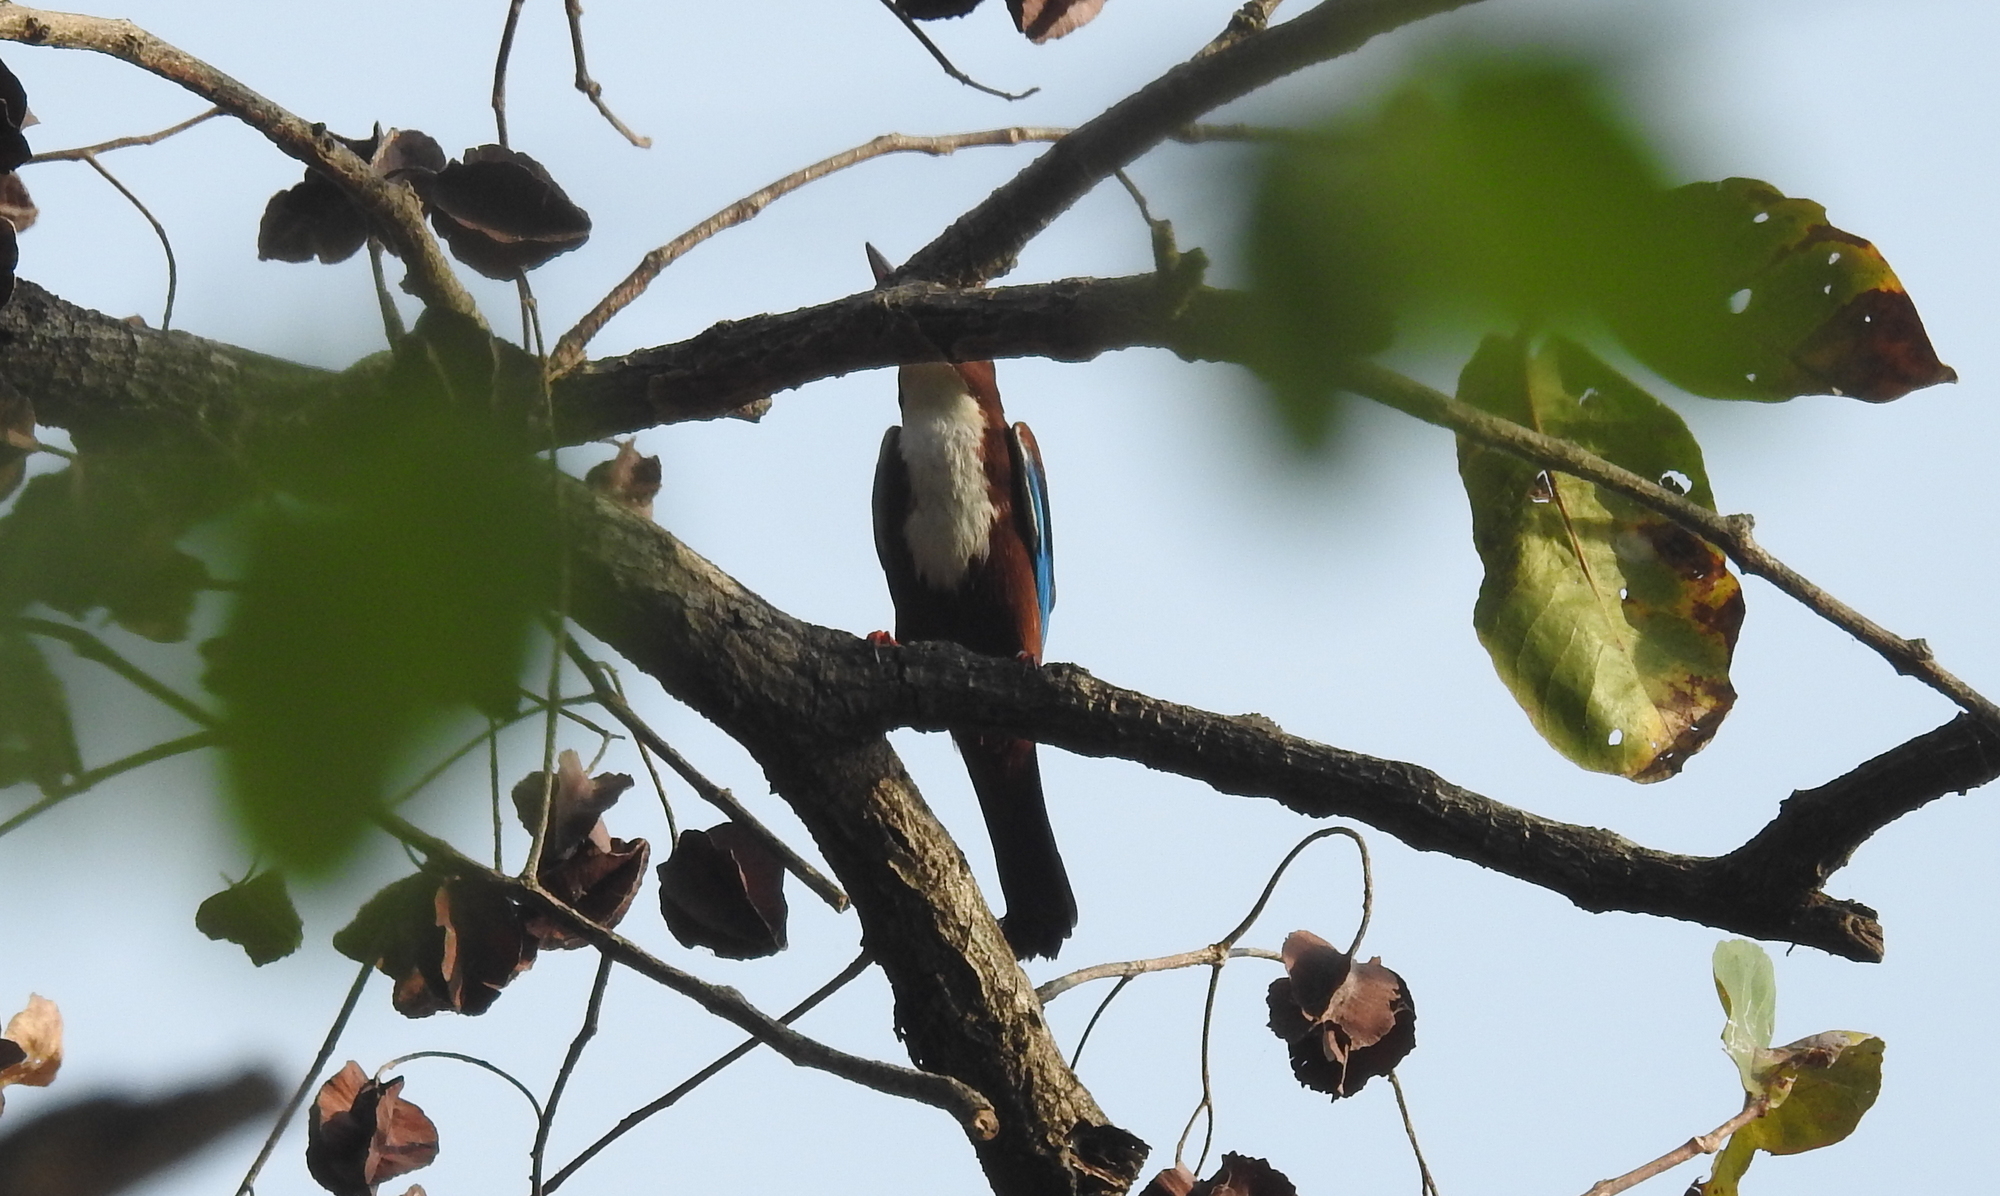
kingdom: Animalia
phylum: Chordata
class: Aves
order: Coraciiformes
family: Alcedinidae
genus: Halcyon
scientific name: Halcyon smyrnensis
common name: White-throated kingfisher
